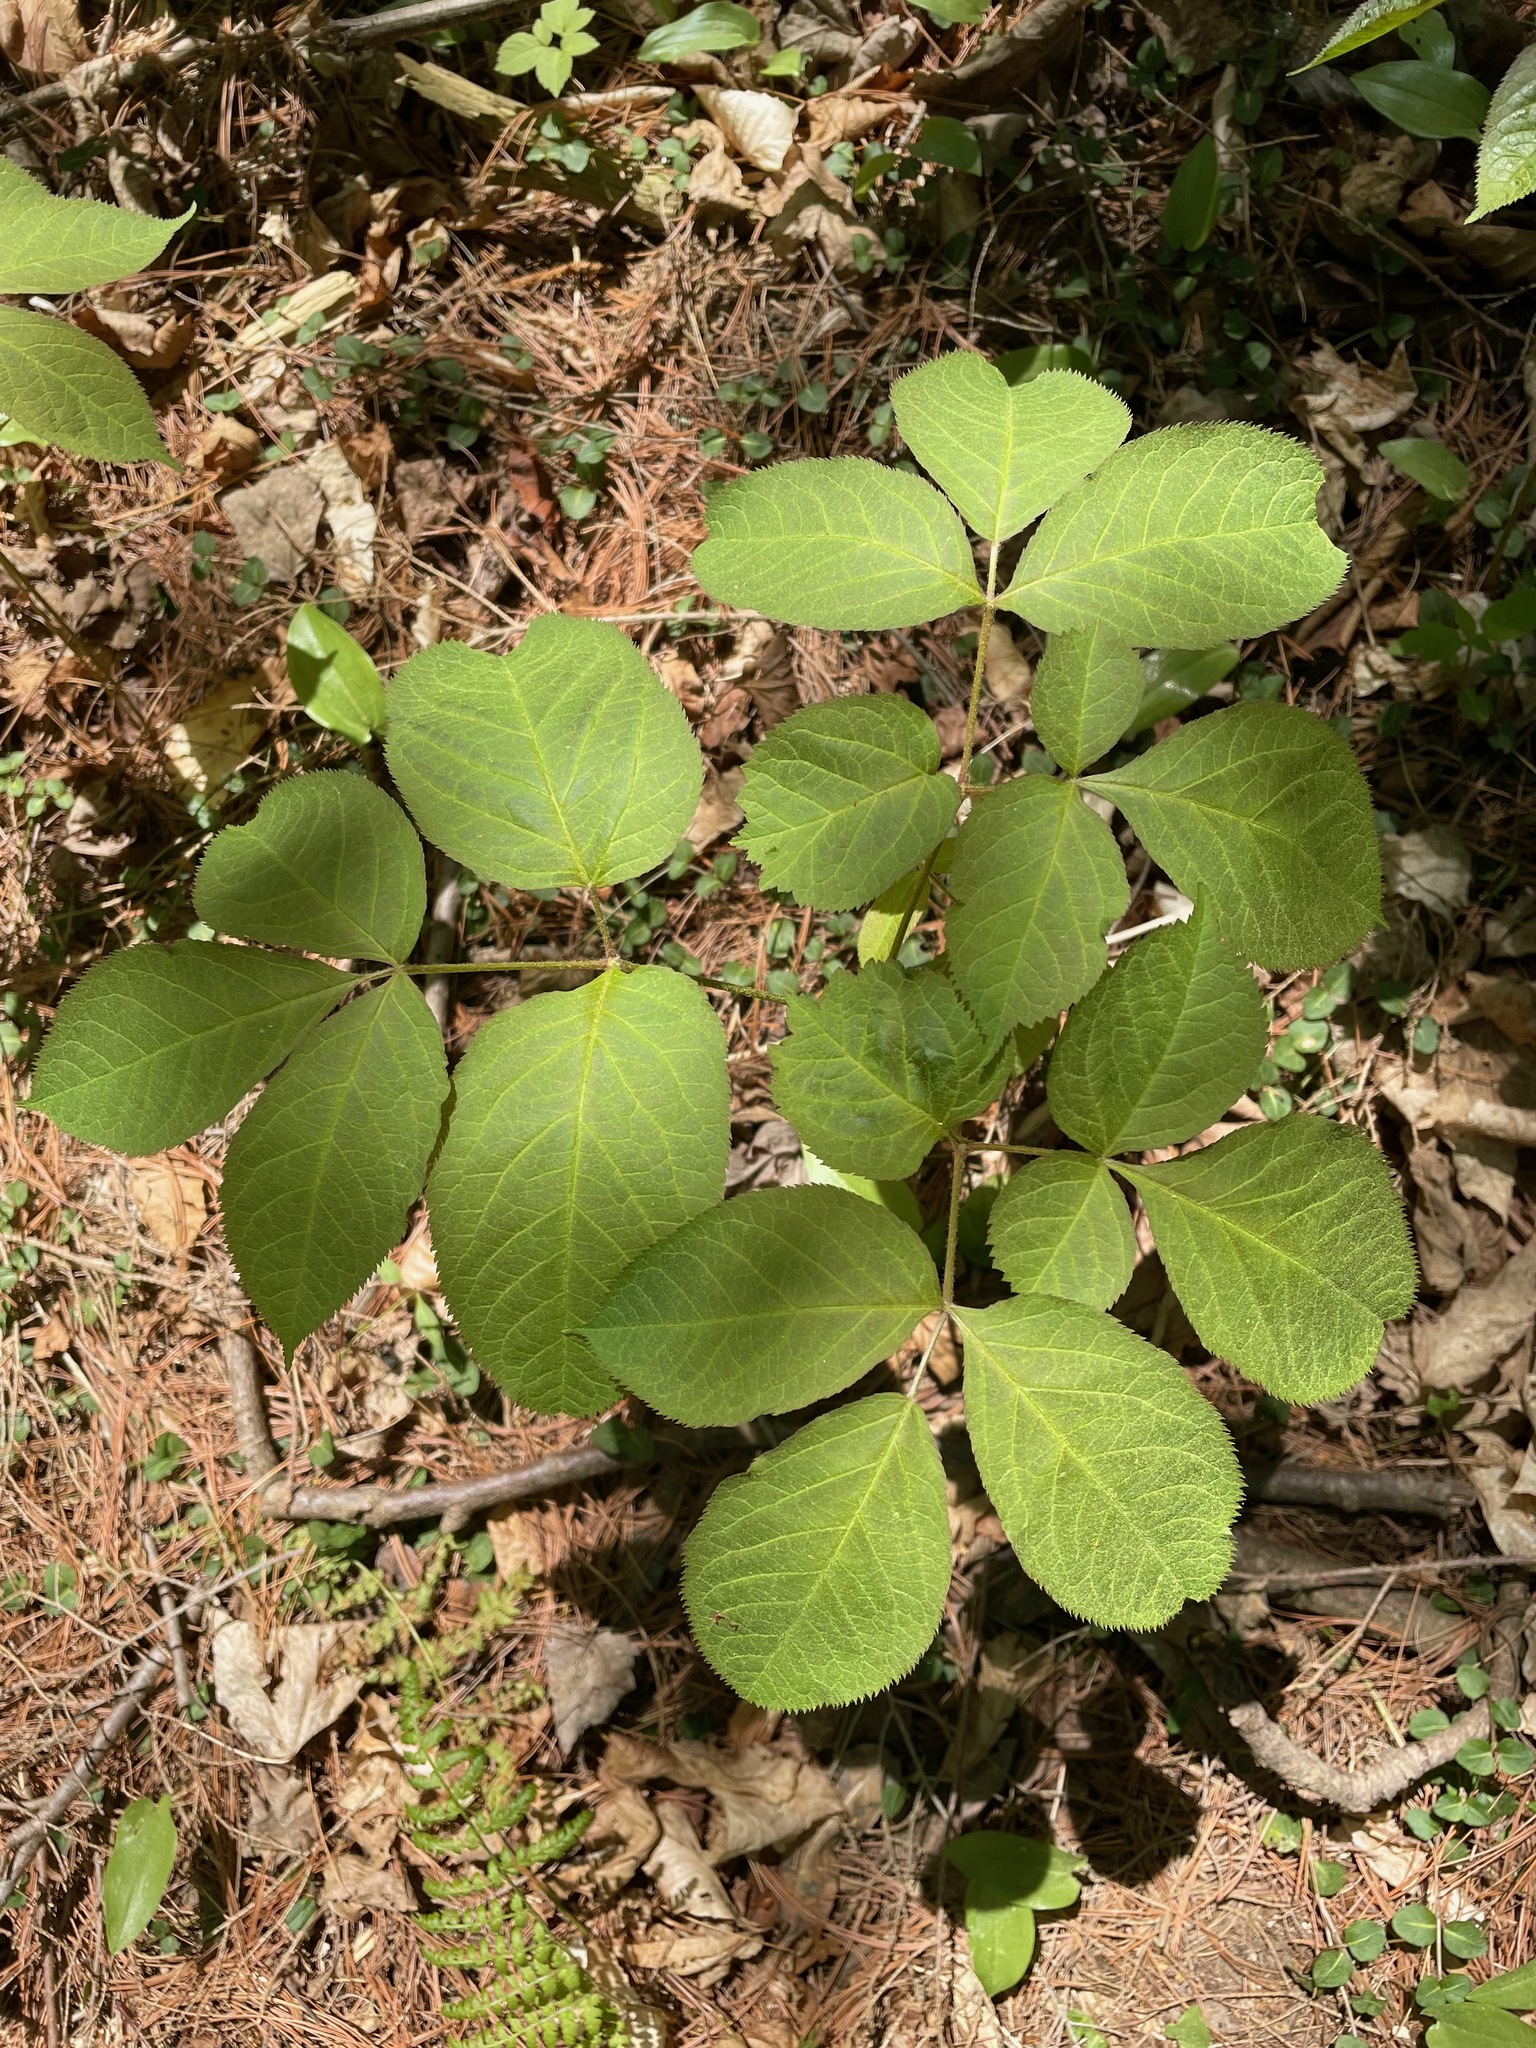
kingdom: Plantae
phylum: Tracheophyta
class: Magnoliopsida
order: Apiales
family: Araliaceae
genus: Aralia
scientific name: Aralia nudicaulis
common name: Wild sarsaparilla
